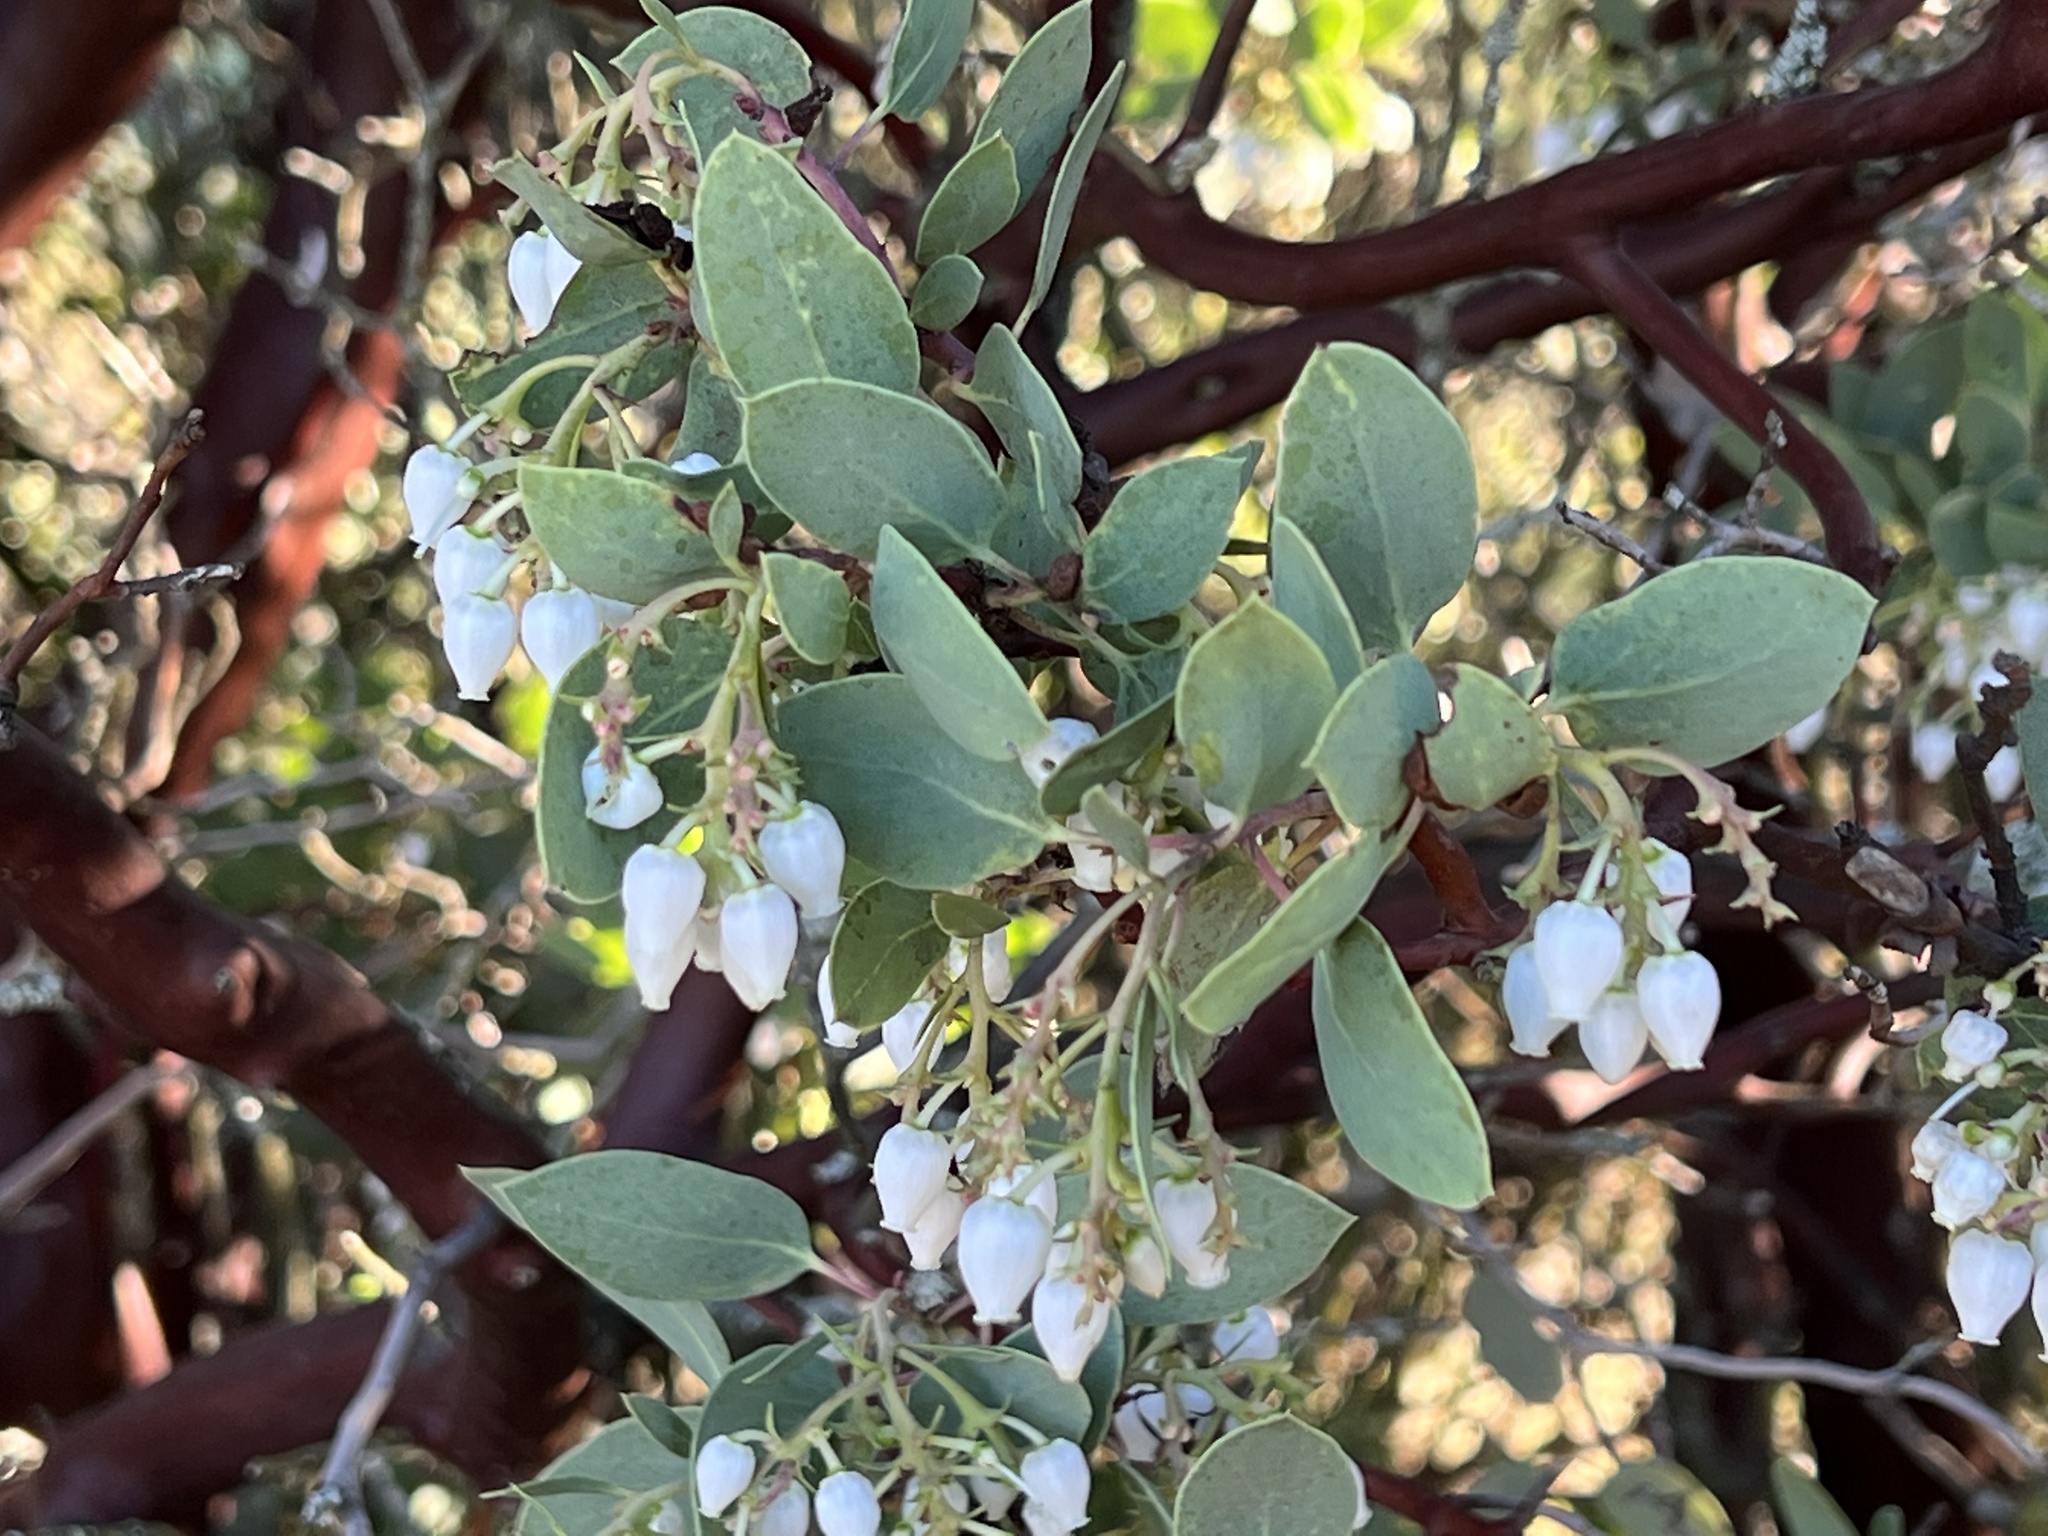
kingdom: Plantae
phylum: Tracheophyta
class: Magnoliopsida
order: Ericales
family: Ericaceae
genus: Arctostaphylos
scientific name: Arctostaphylos glauca
